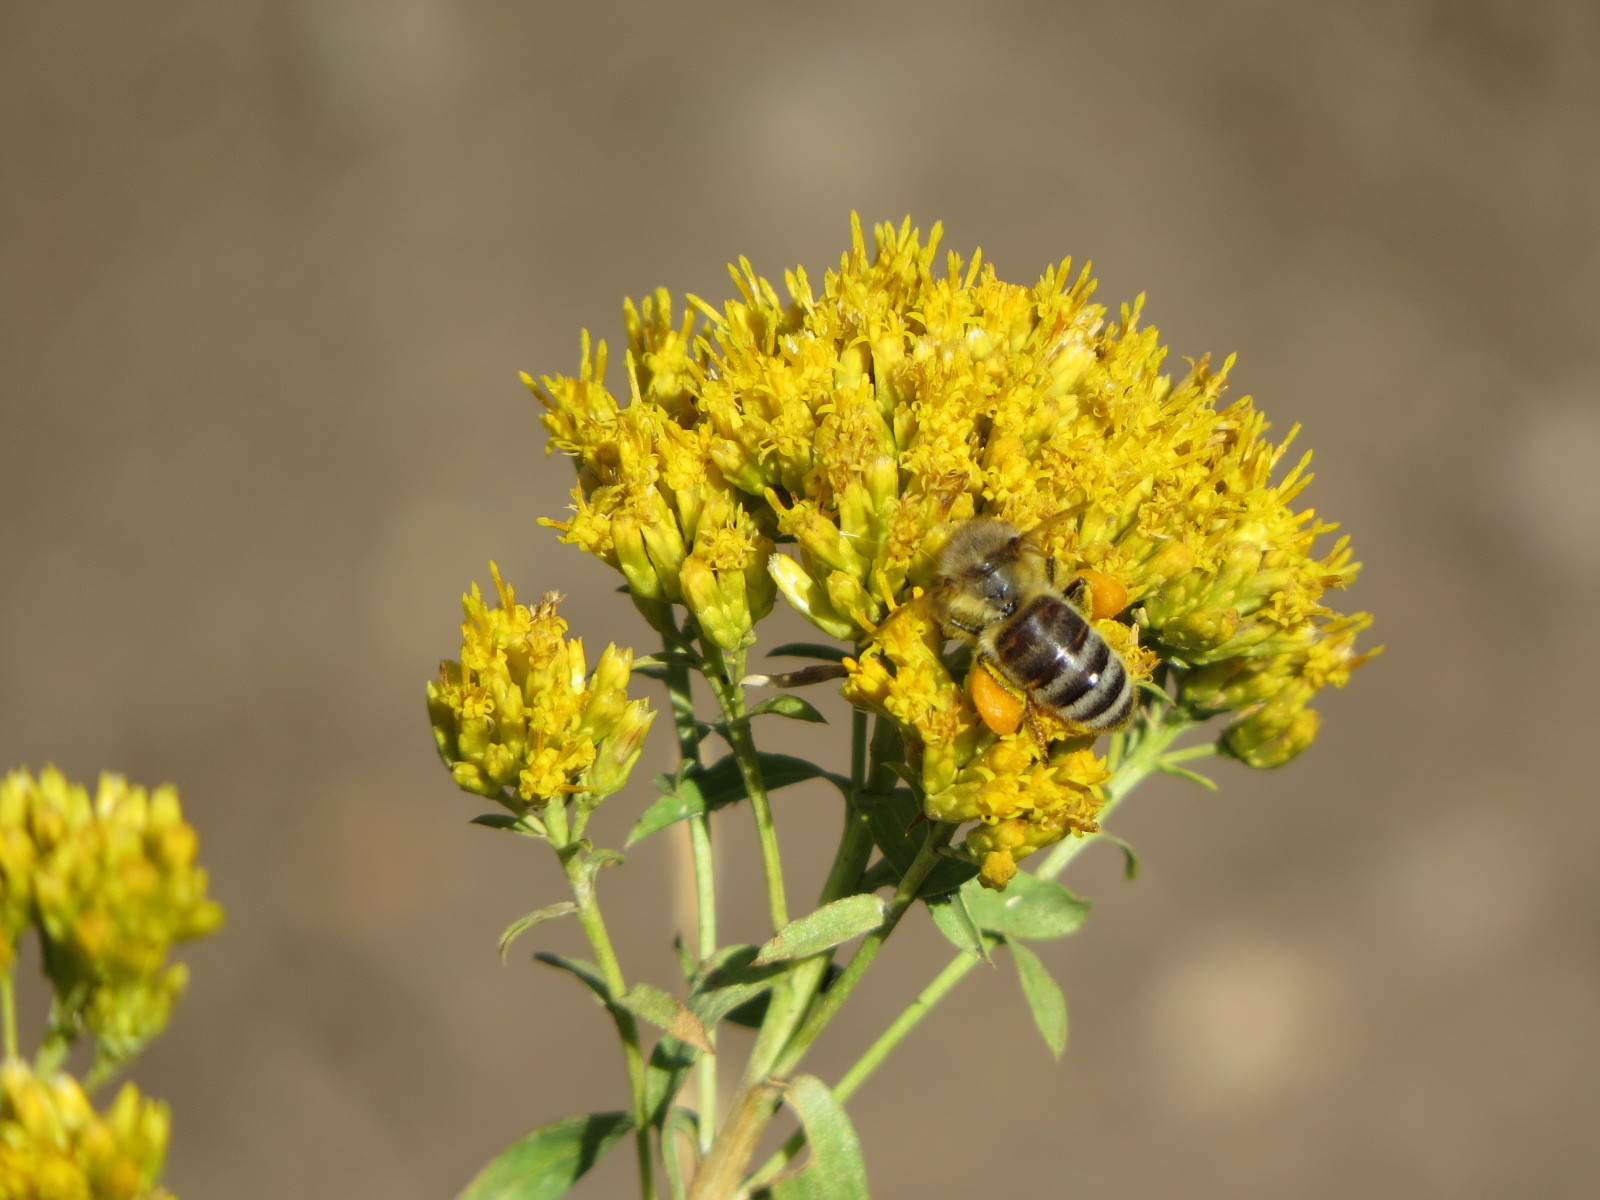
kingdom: Animalia
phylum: Arthropoda
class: Insecta
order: Hymenoptera
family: Apidae
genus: Apis
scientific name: Apis mellifera
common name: Honey bee
